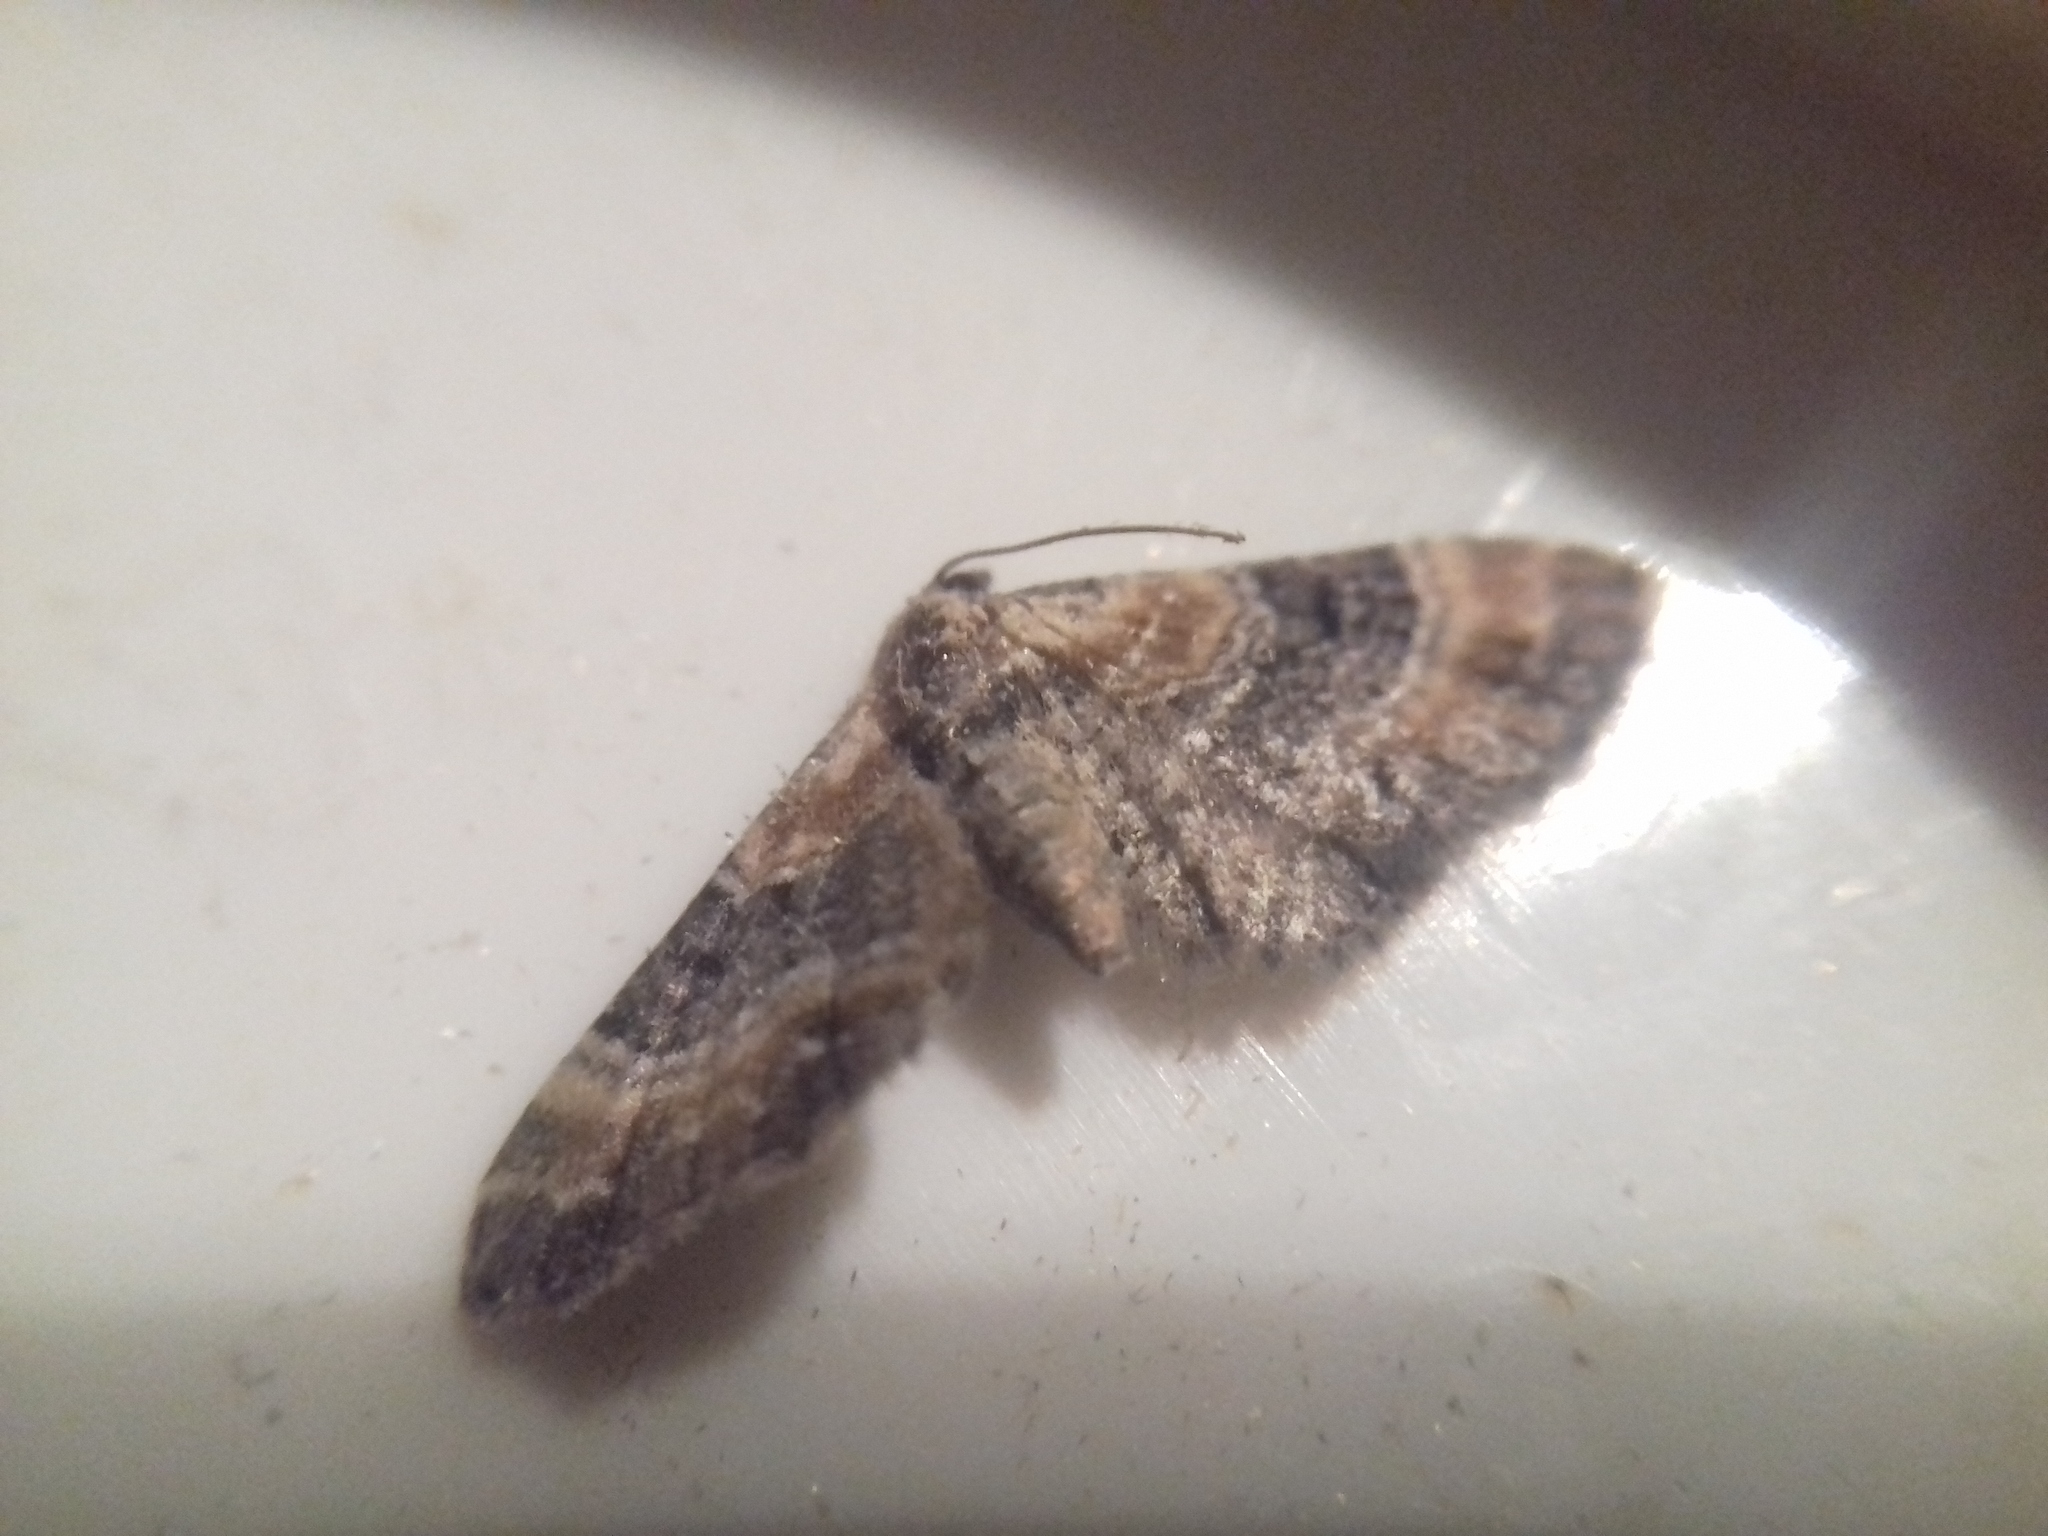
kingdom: Animalia
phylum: Arthropoda
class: Insecta
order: Lepidoptera
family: Geometridae
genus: Eupithecia
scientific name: Eupithecia linariata
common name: Toadflax pug
